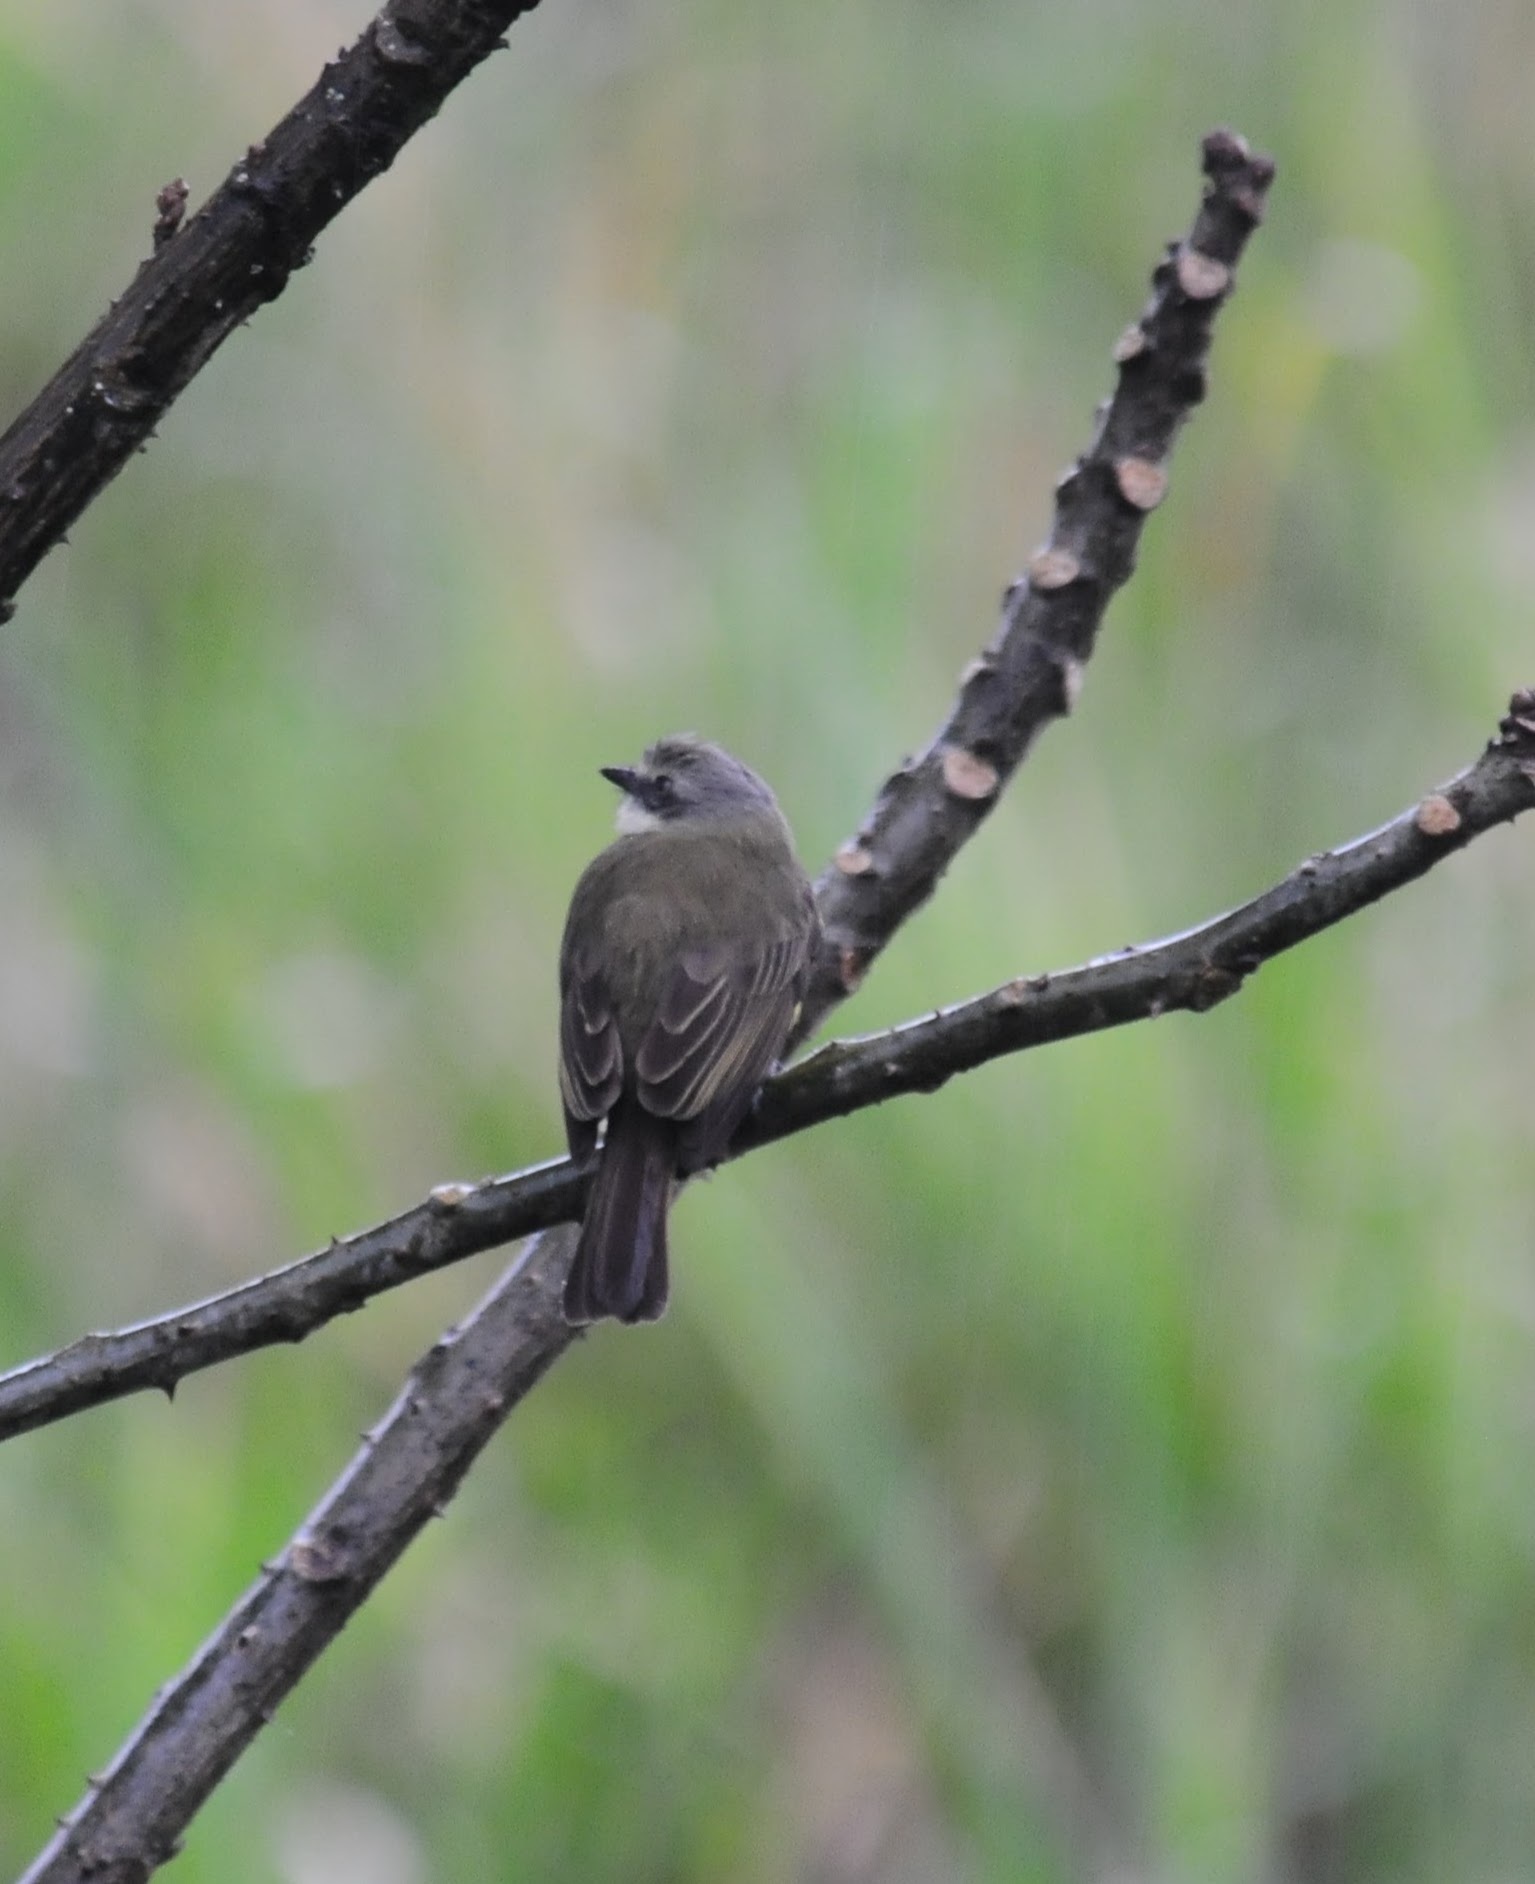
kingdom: Animalia
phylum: Chordata
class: Aves
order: Passeriformes
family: Tyrannidae
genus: Myiozetetes
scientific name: Myiozetetes granadensis
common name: Gray-capped flycatcher
